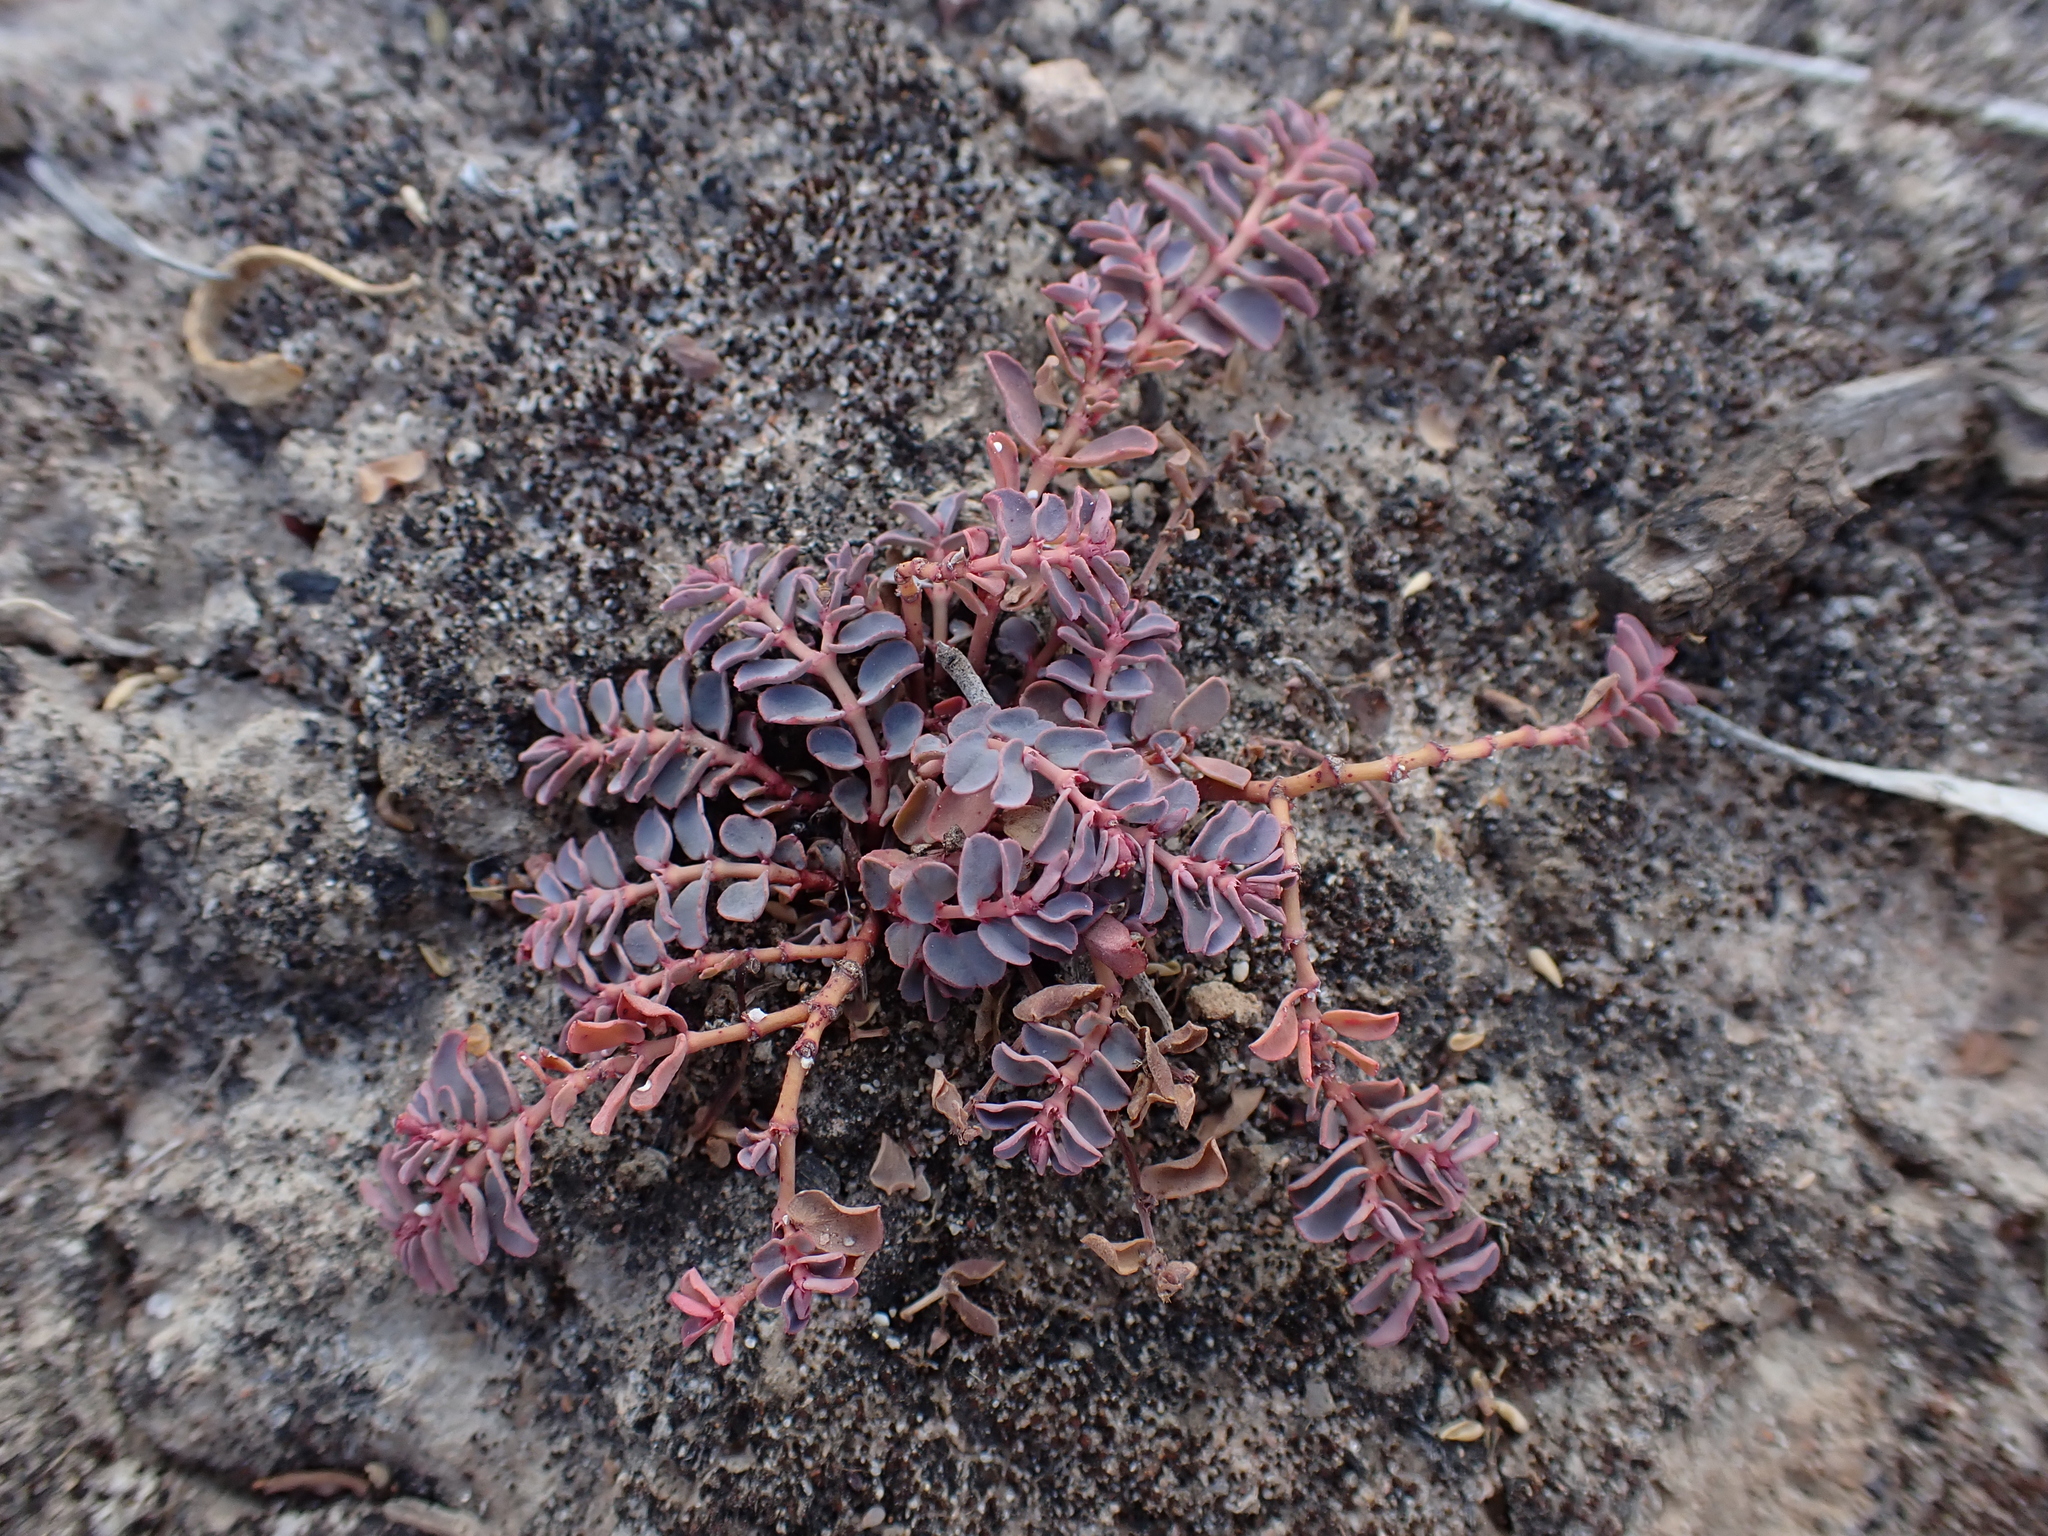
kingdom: Plantae
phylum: Tracheophyta
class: Magnoliopsida
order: Malpighiales
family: Euphorbiaceae
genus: Euphorbia
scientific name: Euphorbia dallachyana
